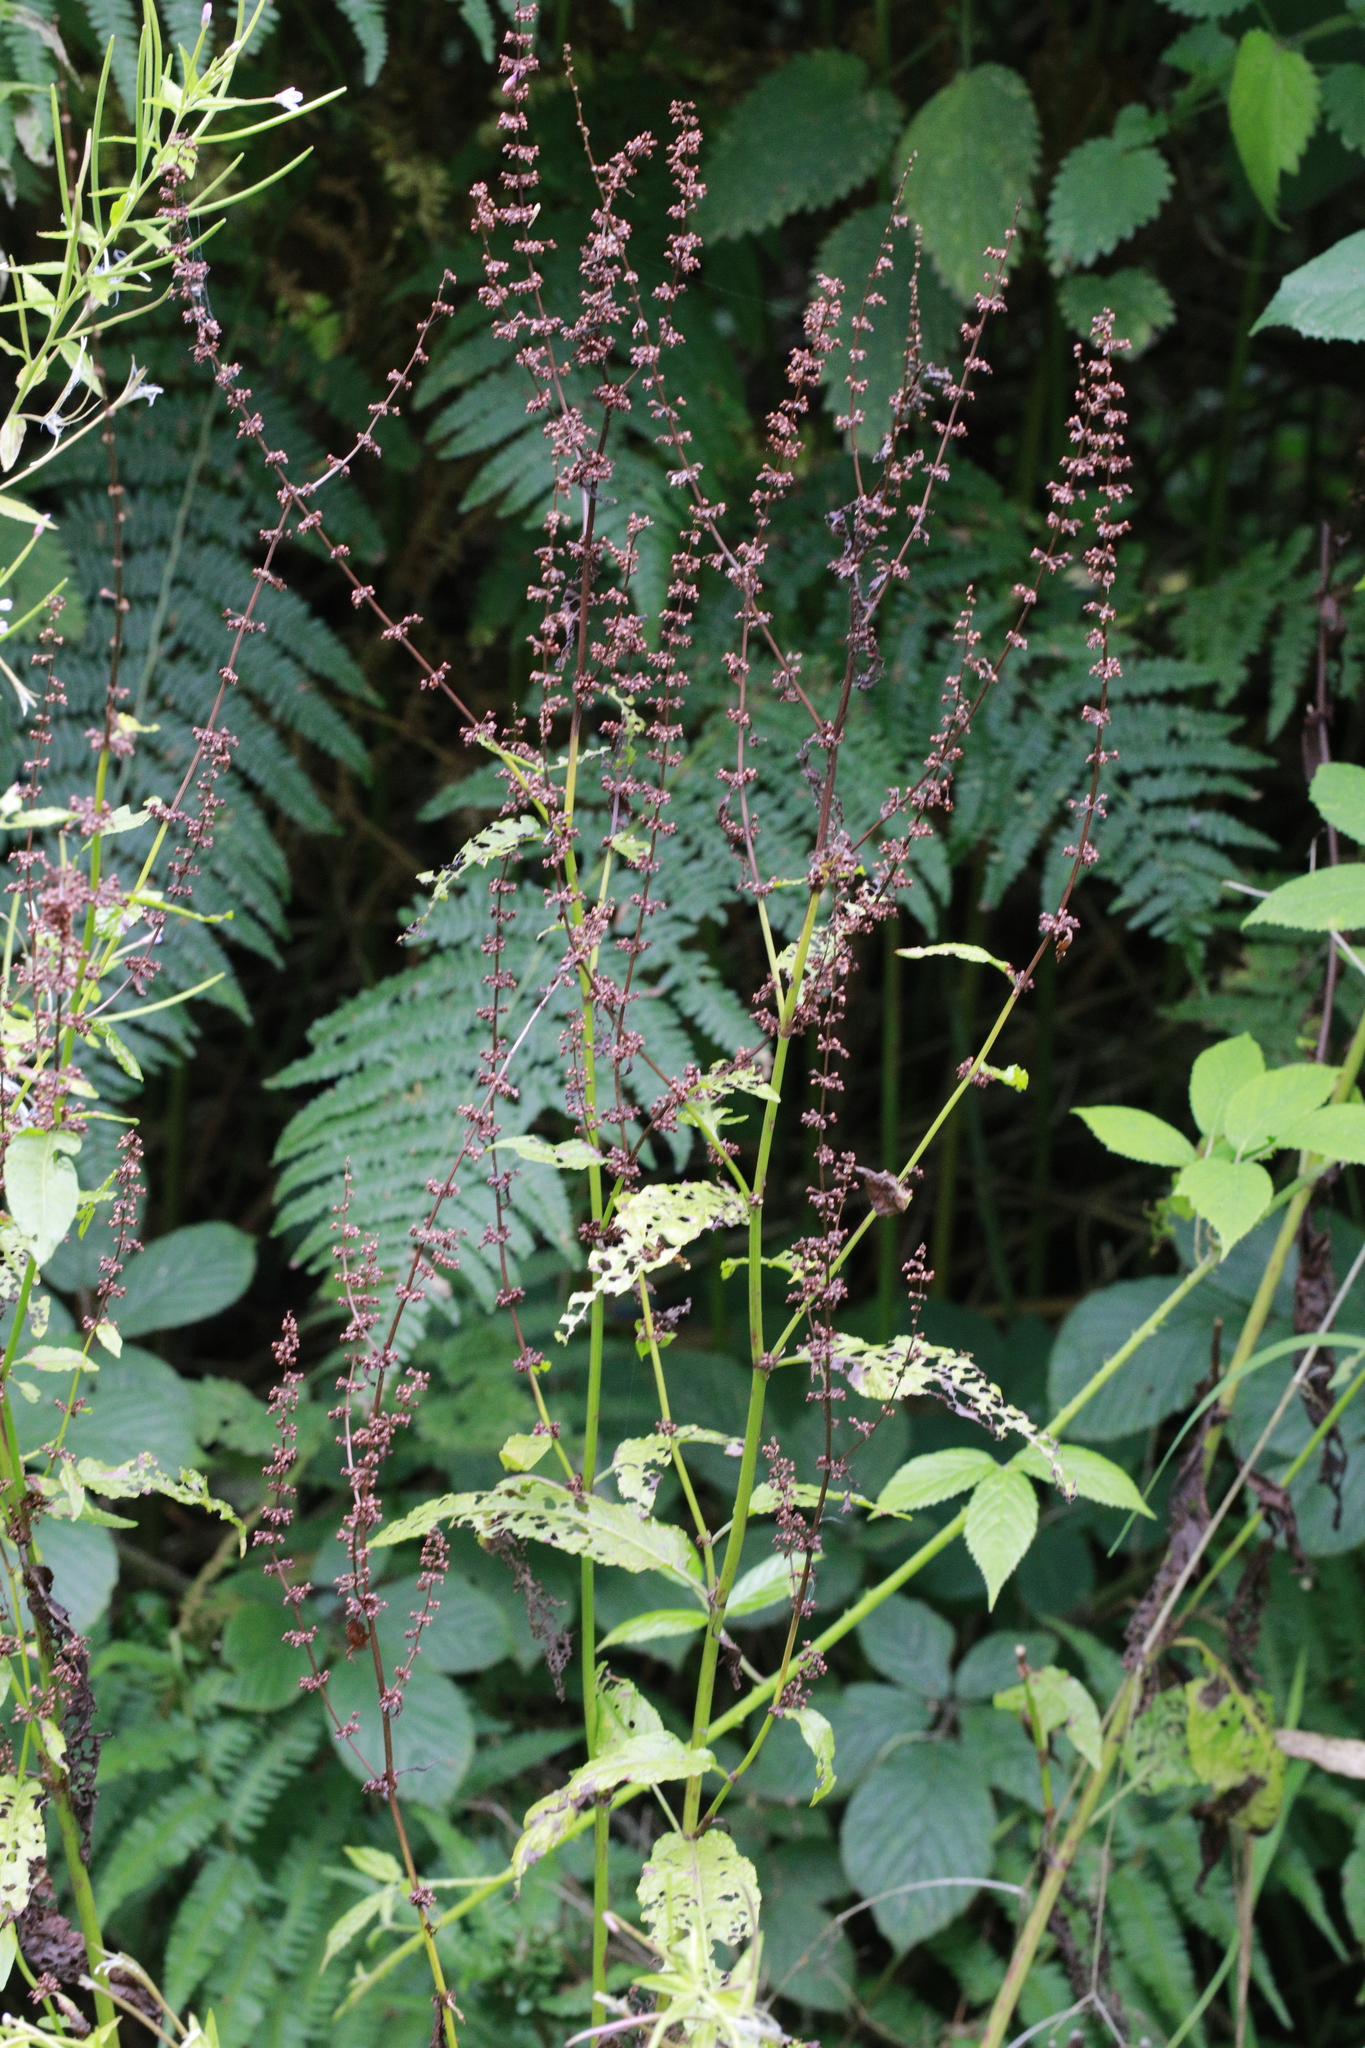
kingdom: Plantae
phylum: Tracheophyta
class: Magnoliopsida
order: Caryophyllales
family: Polygonaceae
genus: Rumex
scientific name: Rumex sanguineus
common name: Wood dock
